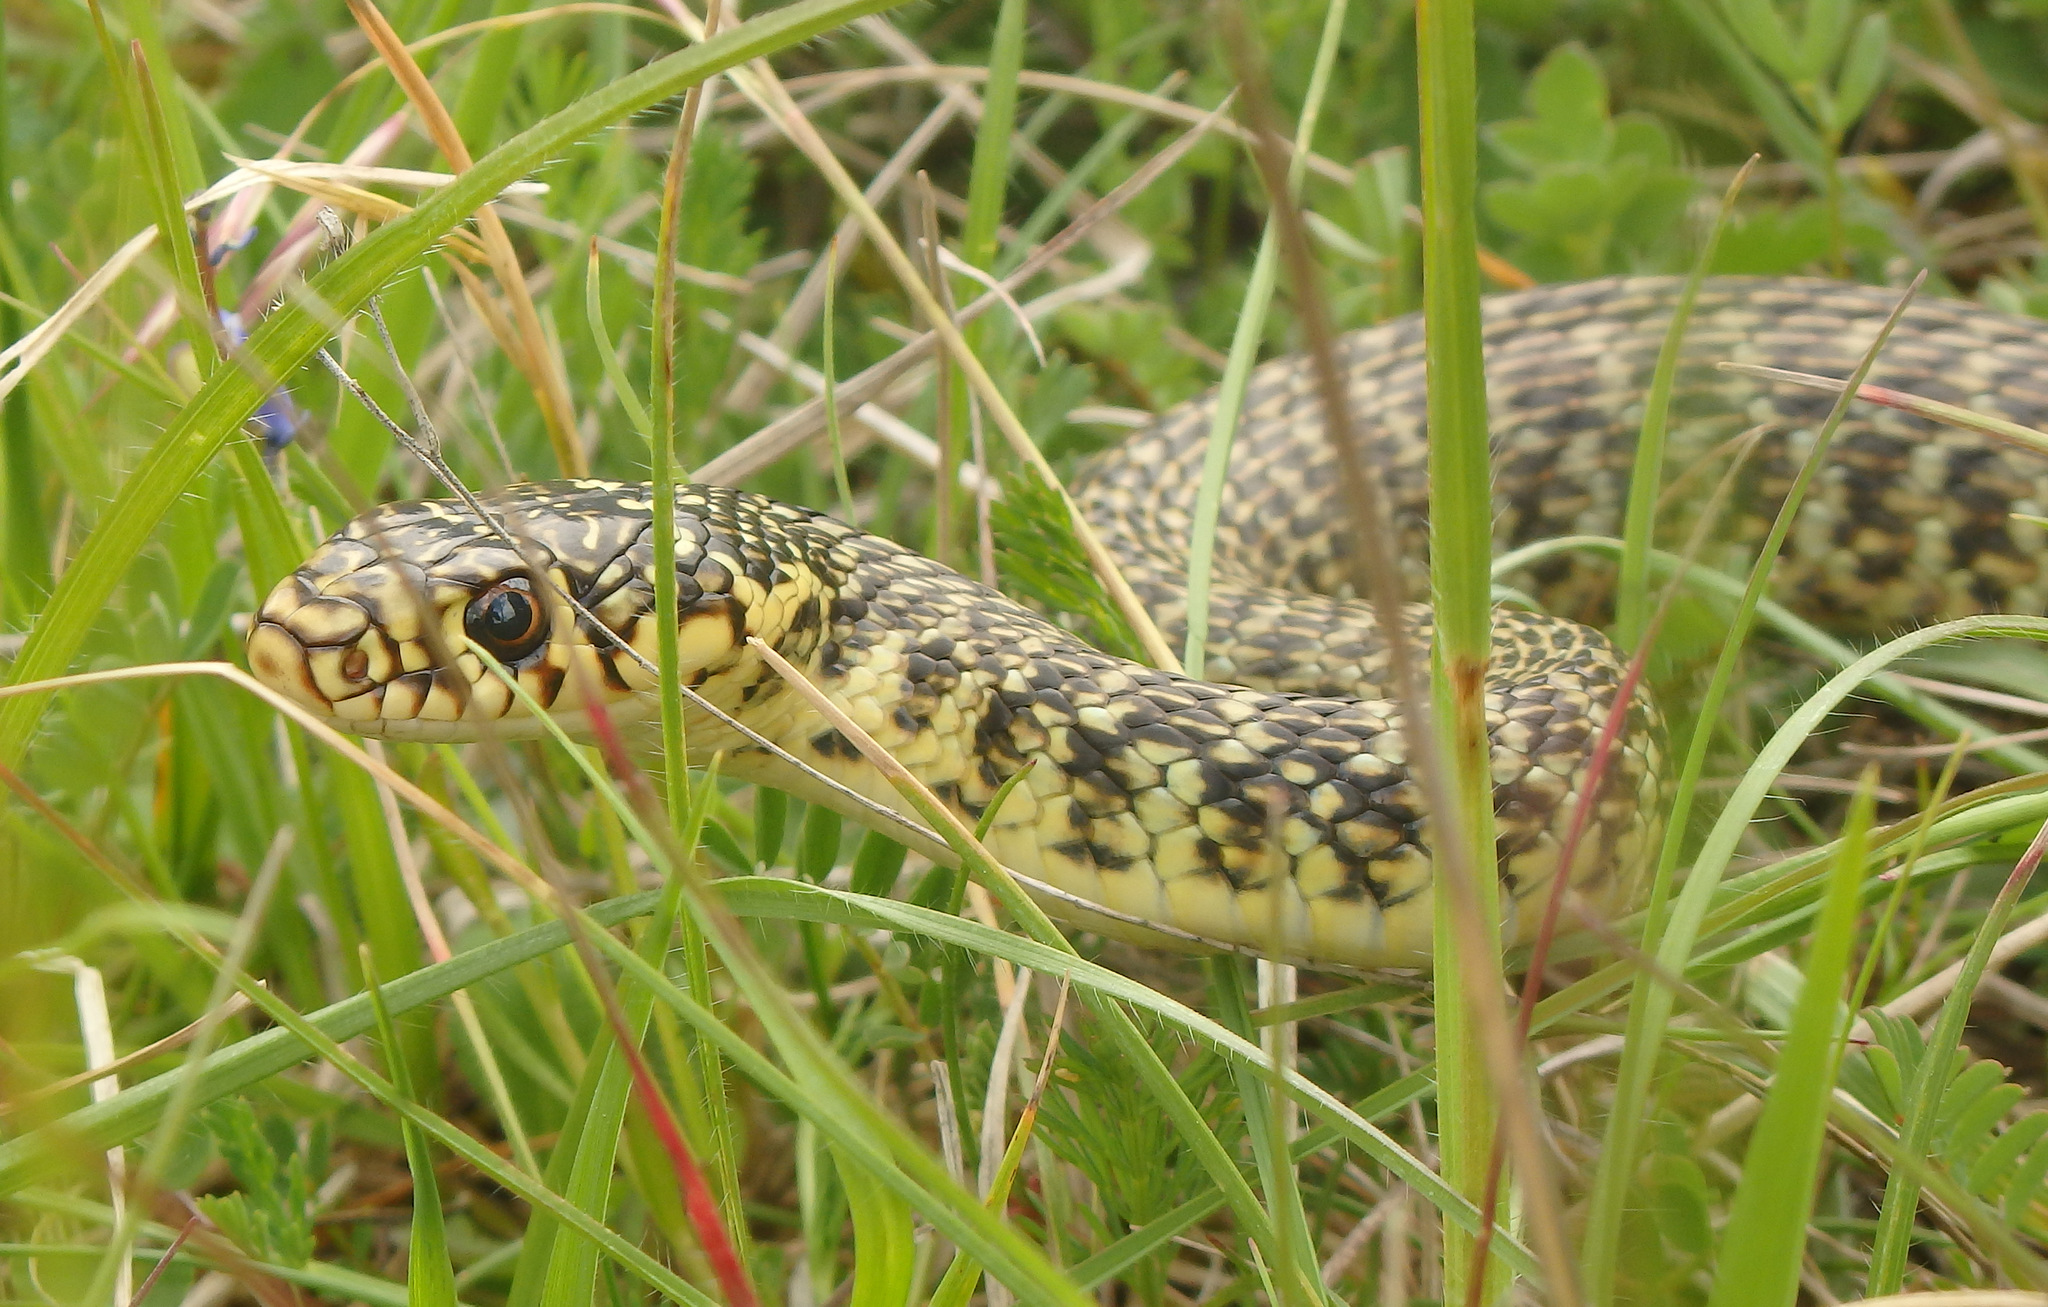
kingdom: Animalia
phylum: Chordata
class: Squamata
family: Colubridae
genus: Hierophis
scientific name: Hierophis viridiflavus
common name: Green whip snake
